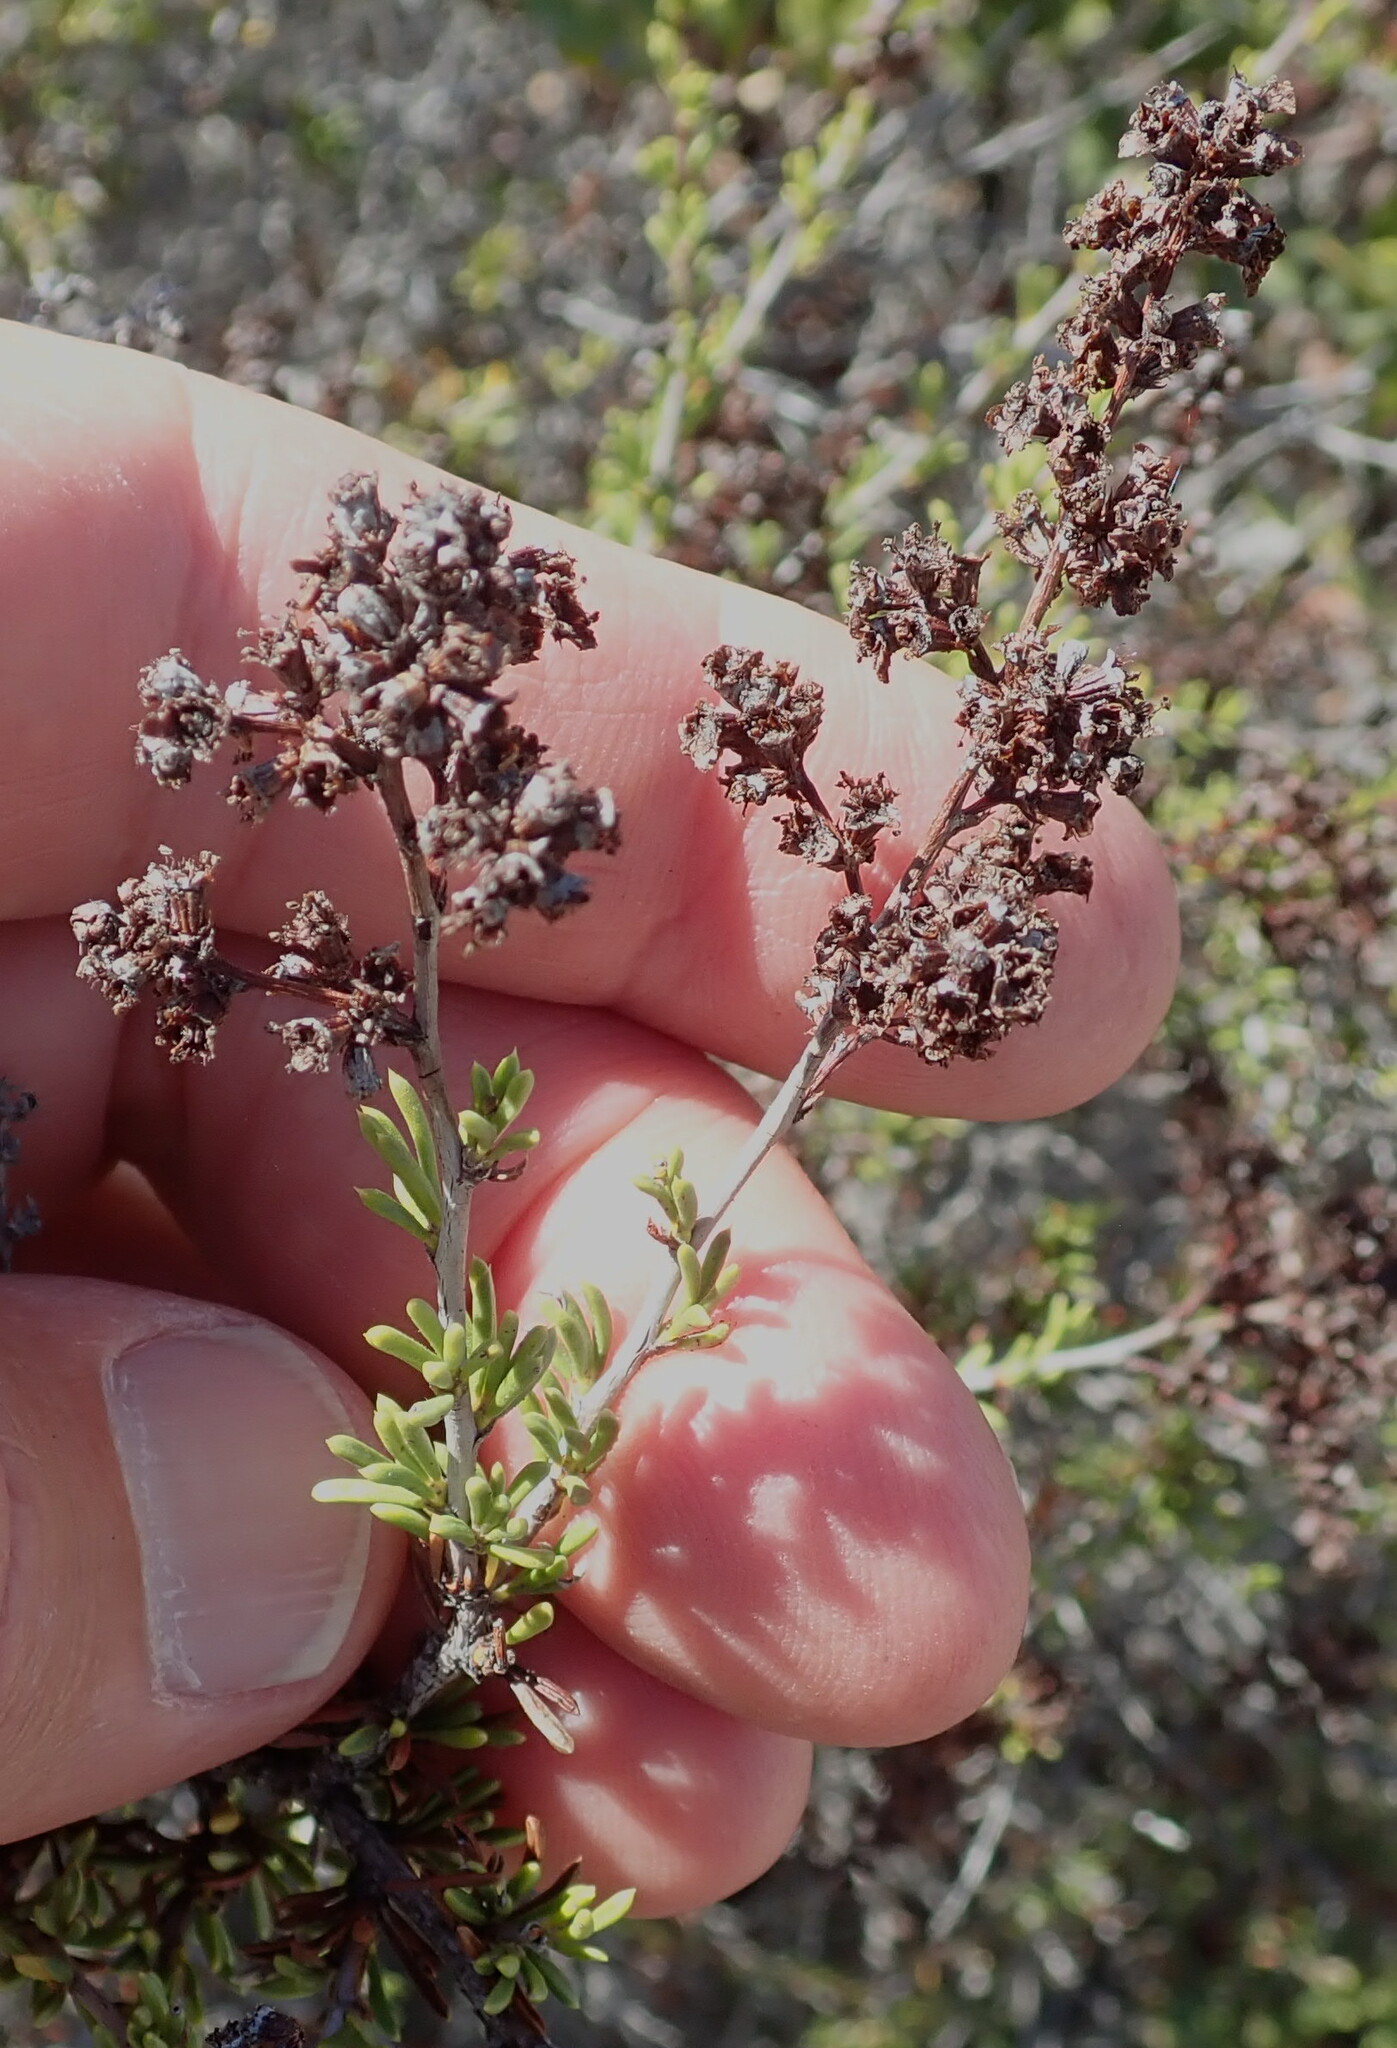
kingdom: Plantae
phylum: Tracheophyta
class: Magnoliopsida
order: Rosales
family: Rosaceae
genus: Adenostoma
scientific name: Adenostoma fasciculatum
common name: Chamise
